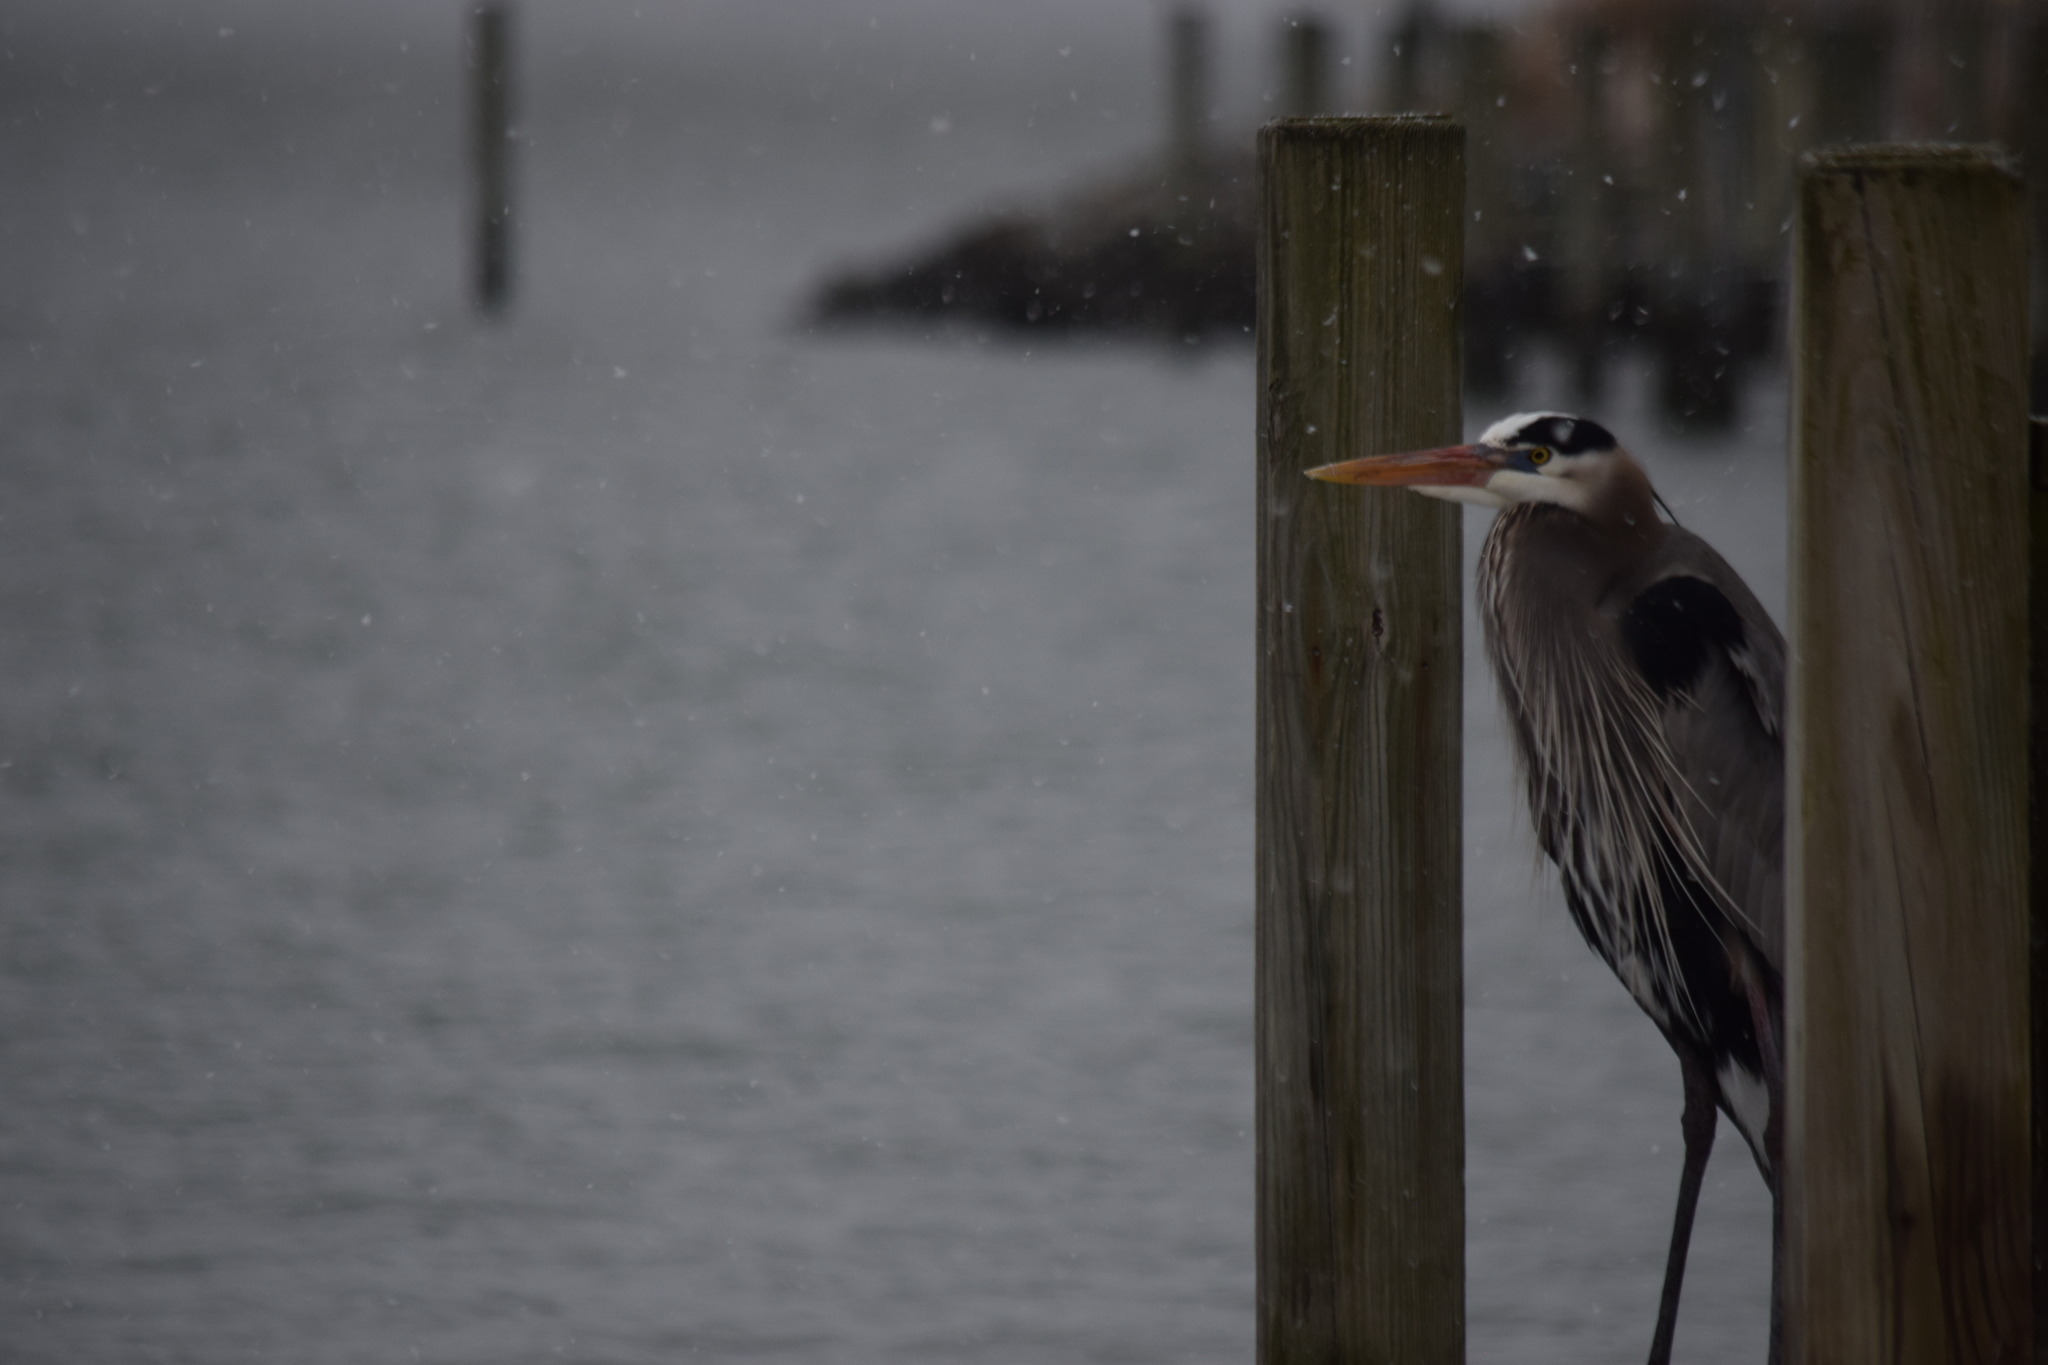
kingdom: Animalia
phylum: Chordata
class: Aves
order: Pelecaniformes
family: Ardeidae
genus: Ardea
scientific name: Ardea herodias
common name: Great blue heron
